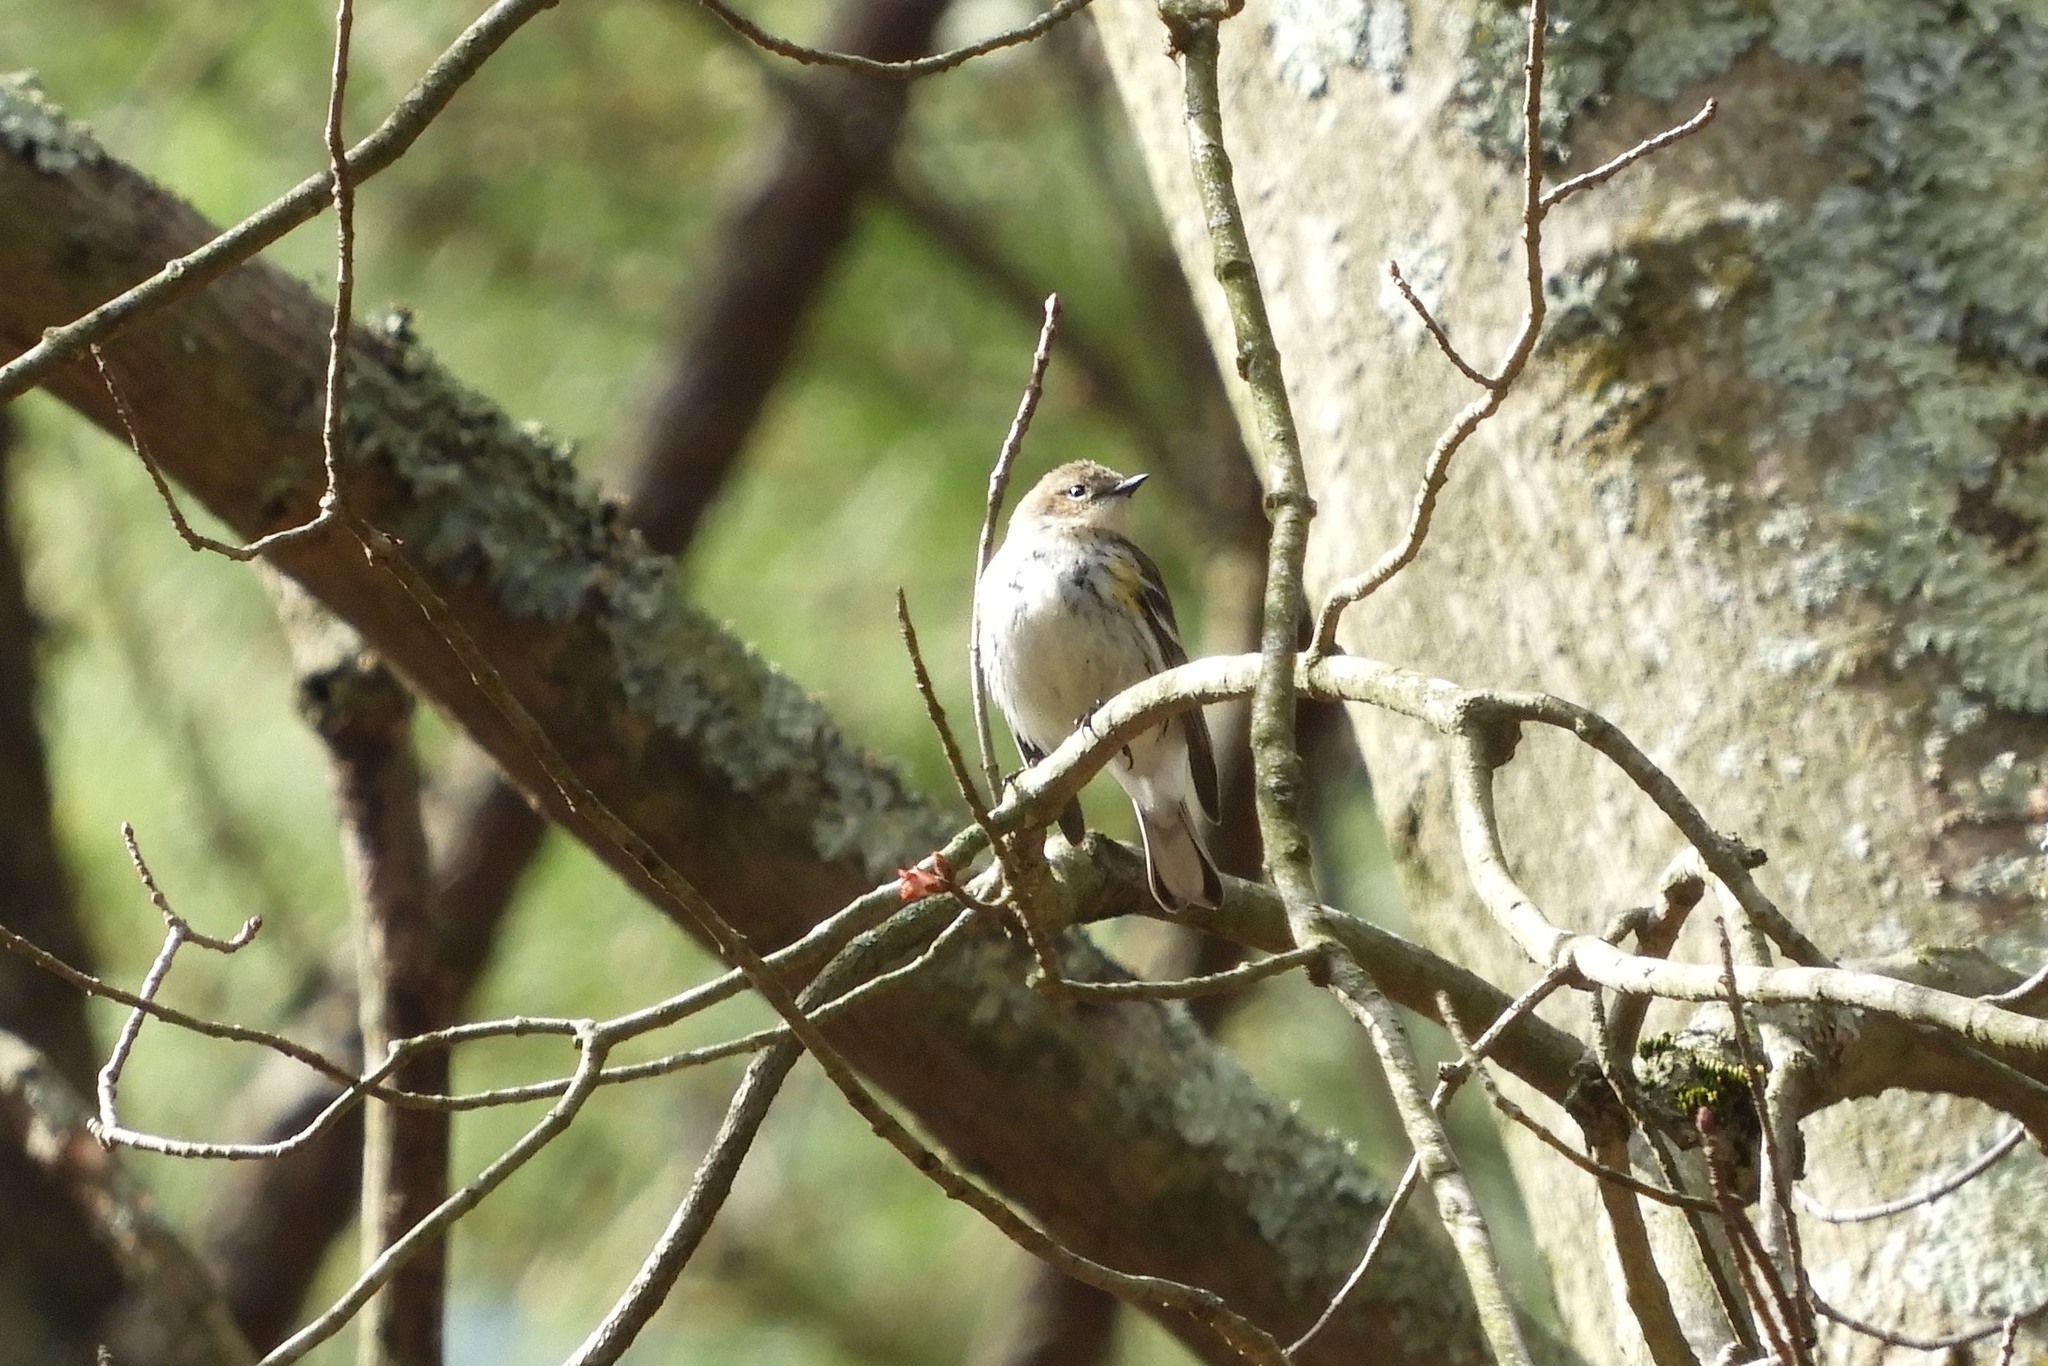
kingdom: Animalia
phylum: Chordata
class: Aves
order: Passeriformes
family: Parulidae
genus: Setophaga
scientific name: Setophaga coronata
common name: Myrtle warbler
